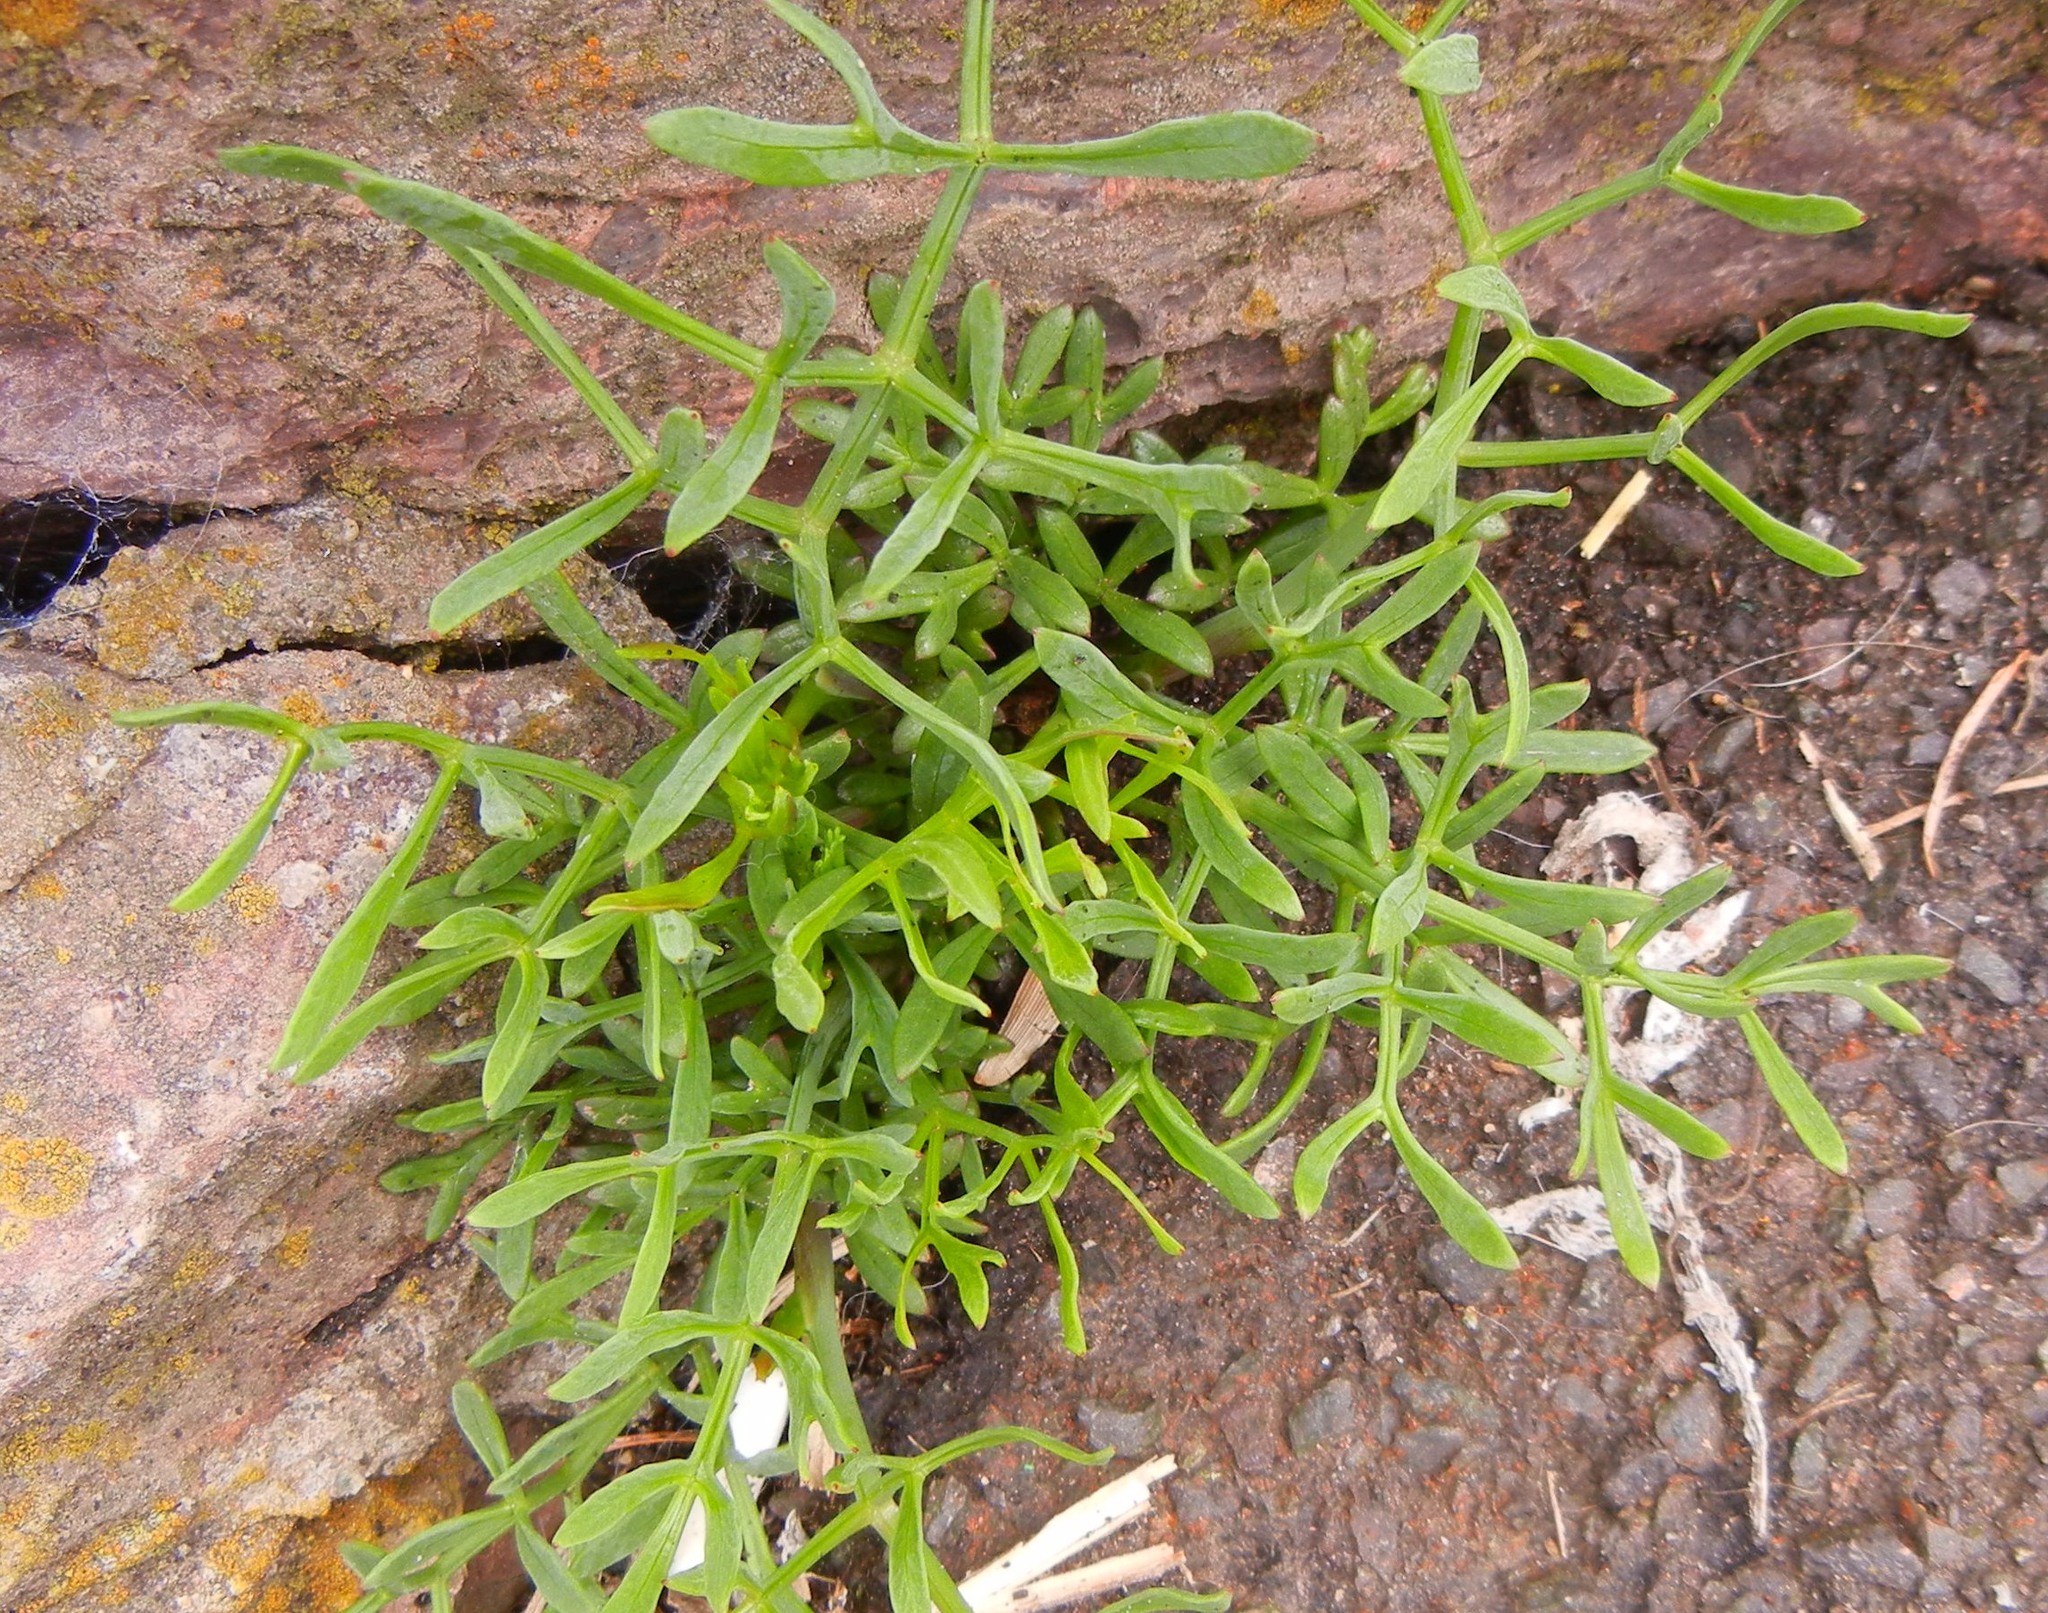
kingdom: Plantae
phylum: Tracheophyta
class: Magnoliopsida
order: Apiales
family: Apiaceae
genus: Crithmum
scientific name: Crithmum maritimum
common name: Rock samphire
